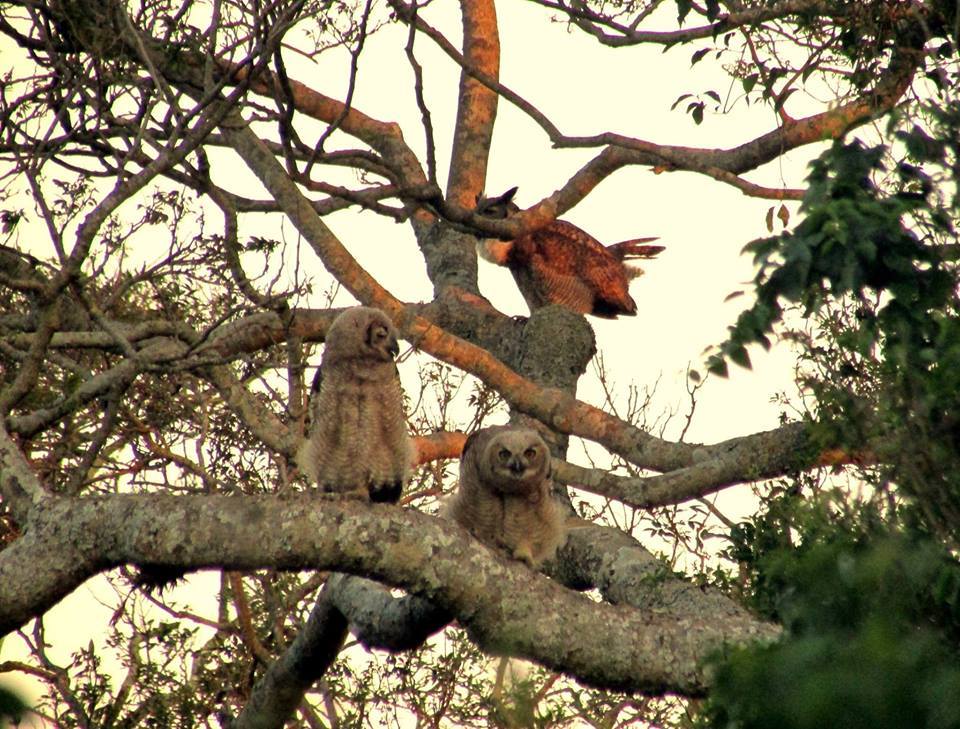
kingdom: Animalia
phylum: Chordata
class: Aves
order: Strigiformes
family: Strigidae
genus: Bubo
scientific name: Bubo virginianus
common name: Great horned owl
